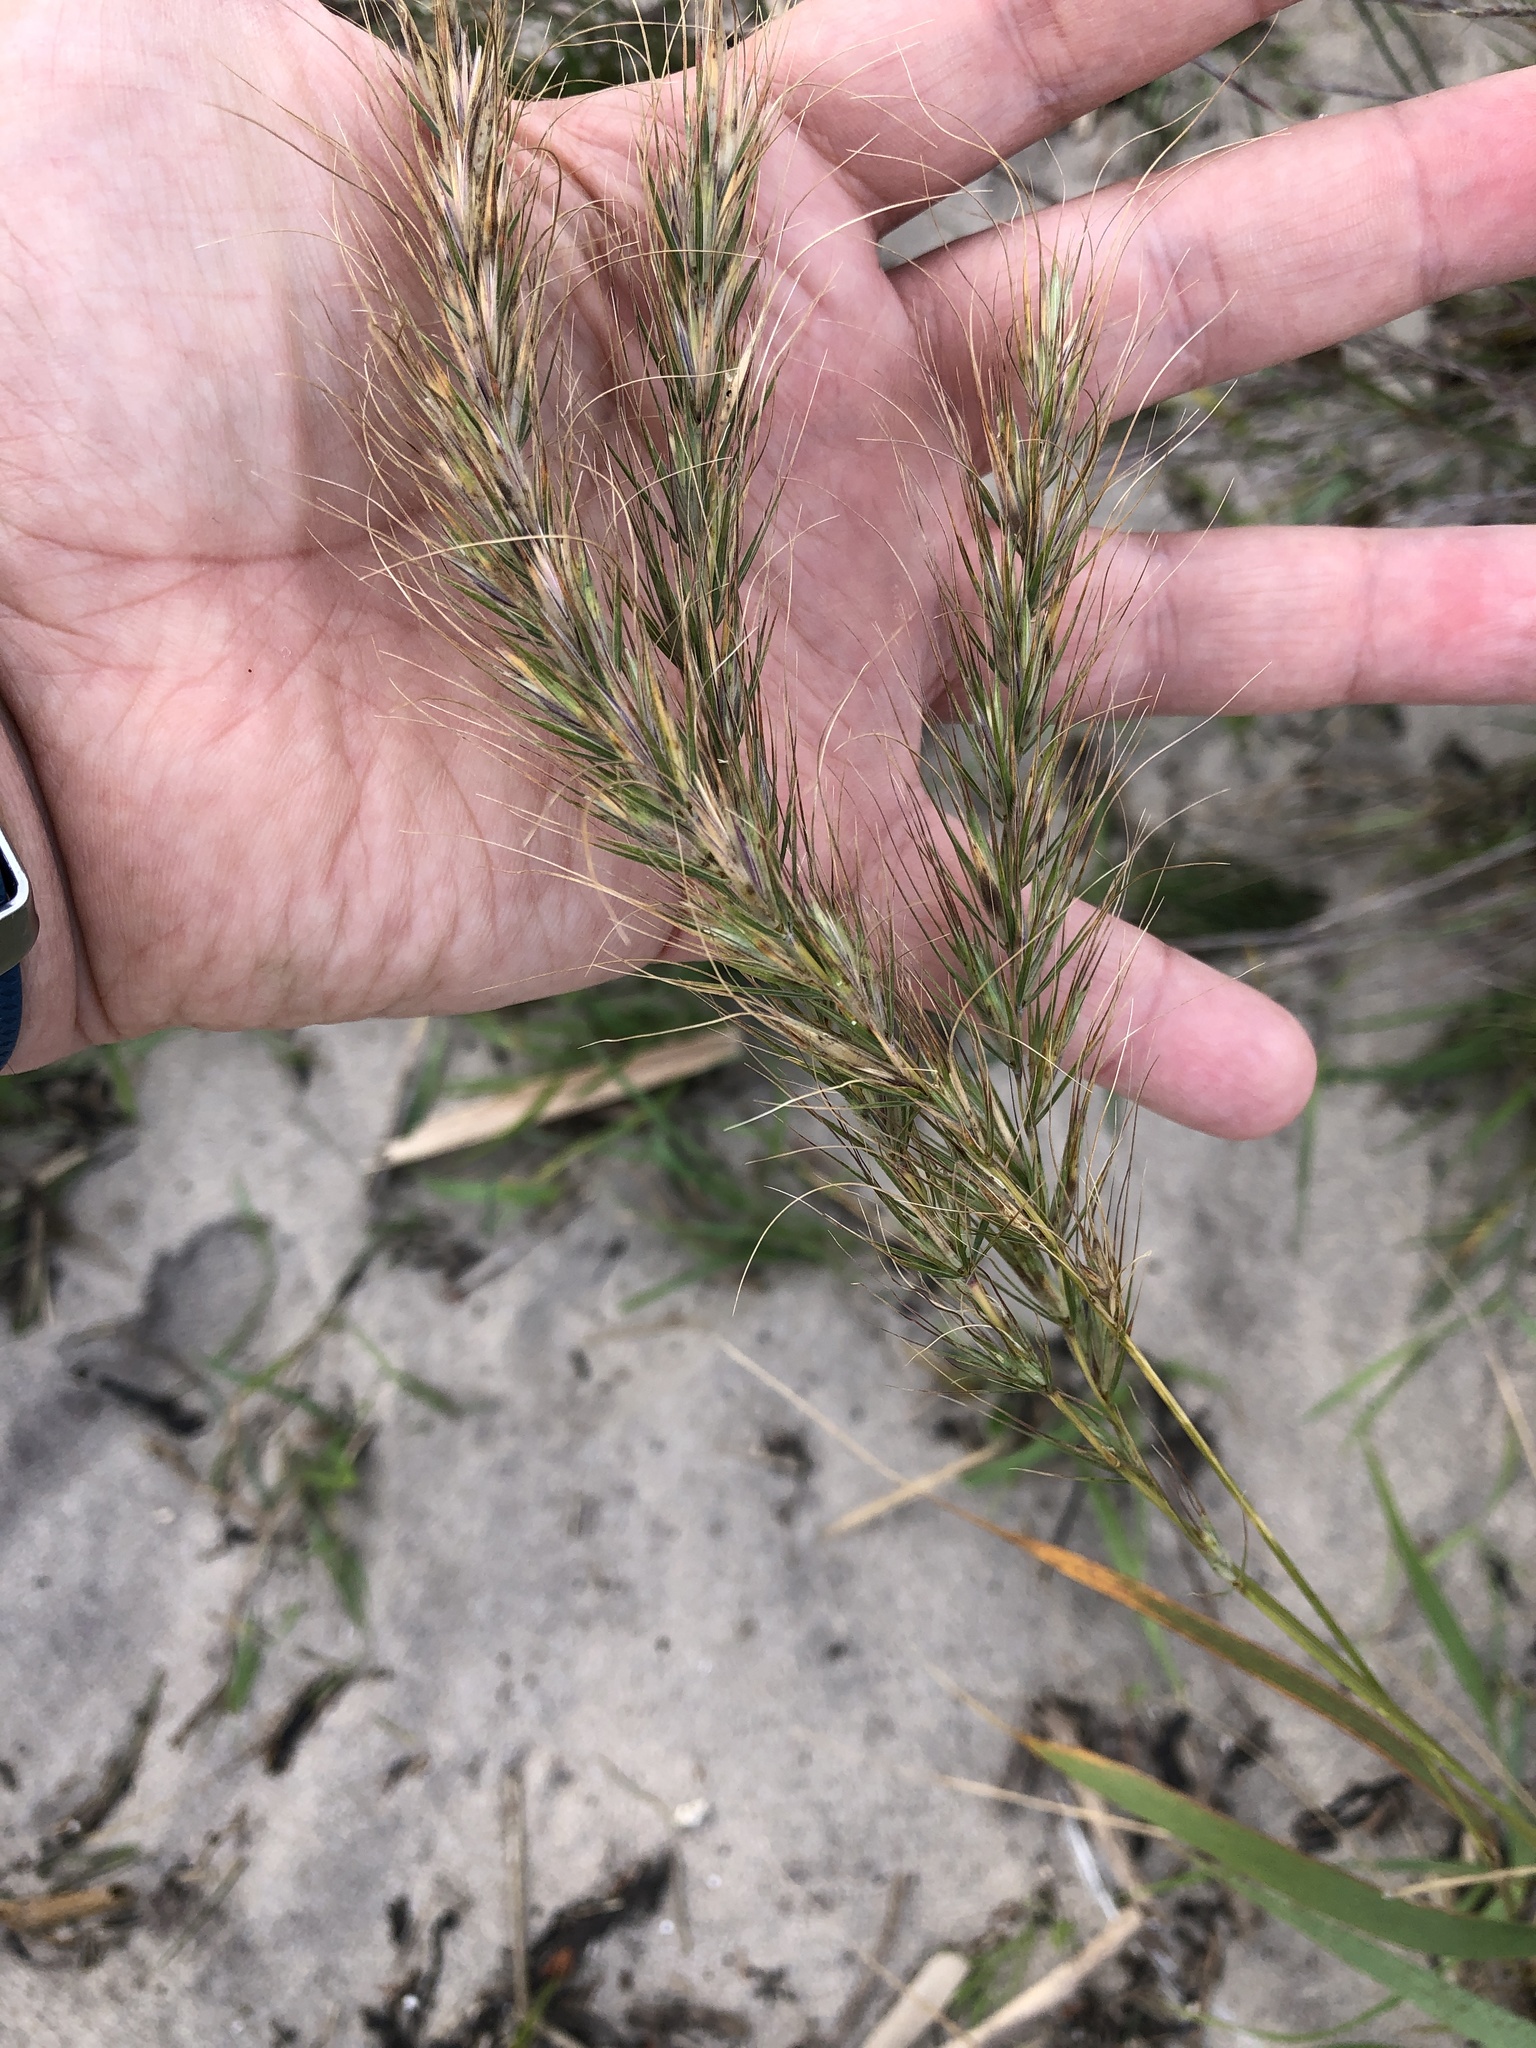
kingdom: Plantae
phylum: Tracheophyta
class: Liliopsida
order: Poales
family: Poaceae
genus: Elymus
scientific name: Elymus canadensis
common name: Canada wild rye
